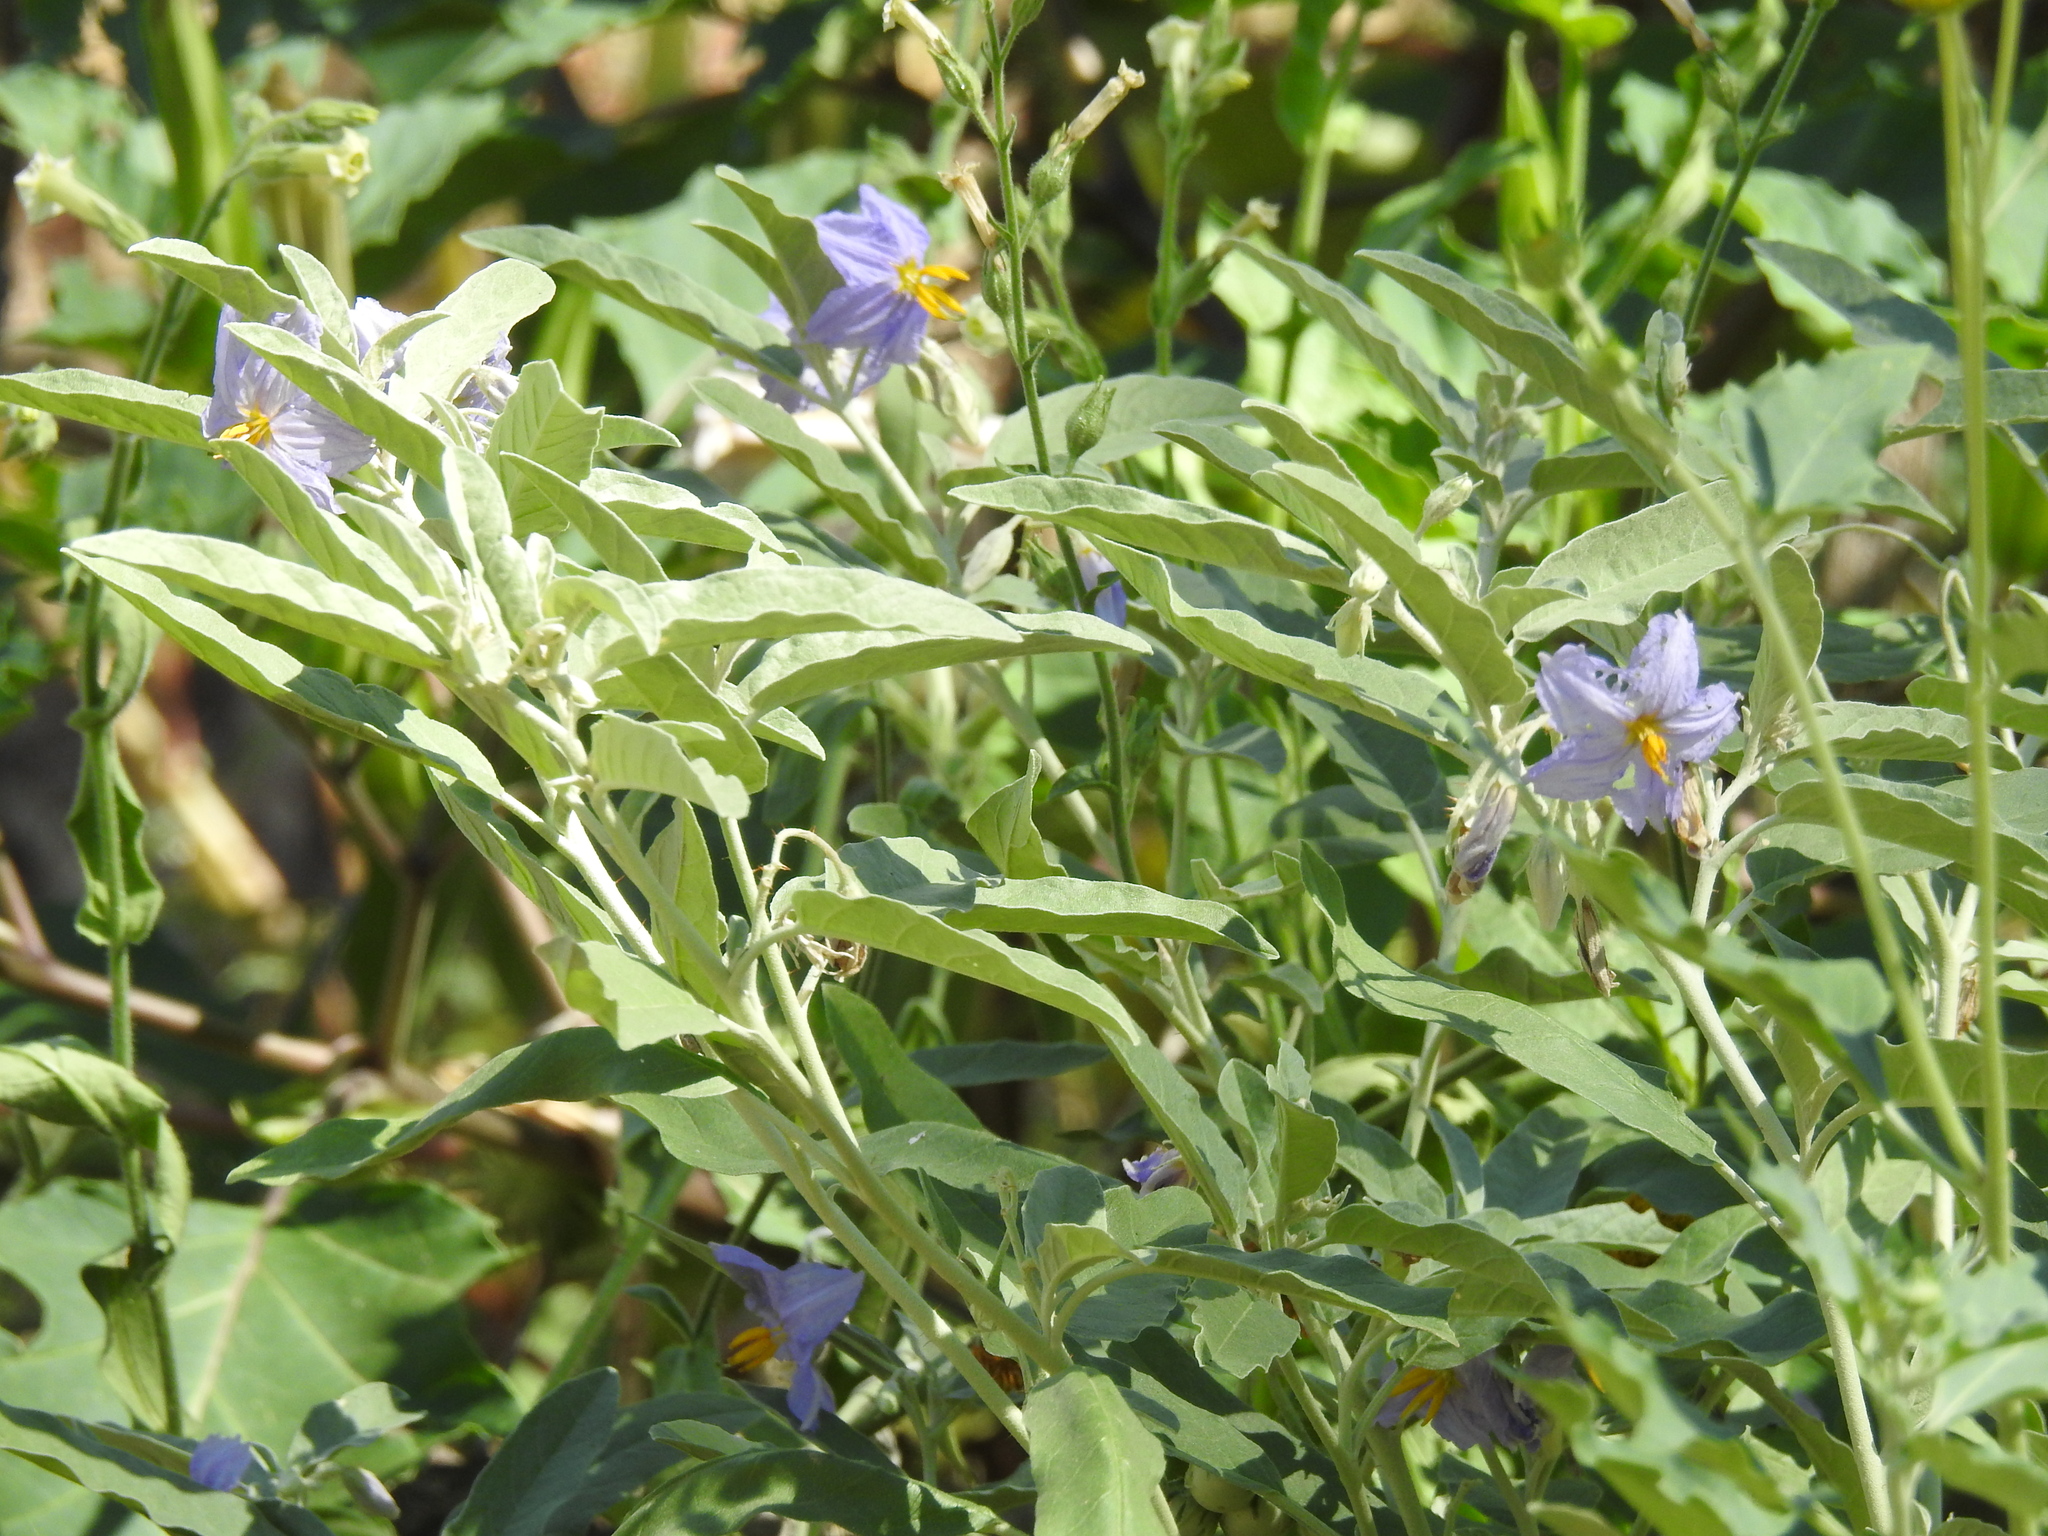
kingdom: Plantae
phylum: Tracheophyta
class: Magnoliopsida
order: Solanales
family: Solanaceae
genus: Solanum
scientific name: Solanum elaeagnifolium
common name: Silverleaf nightshade
